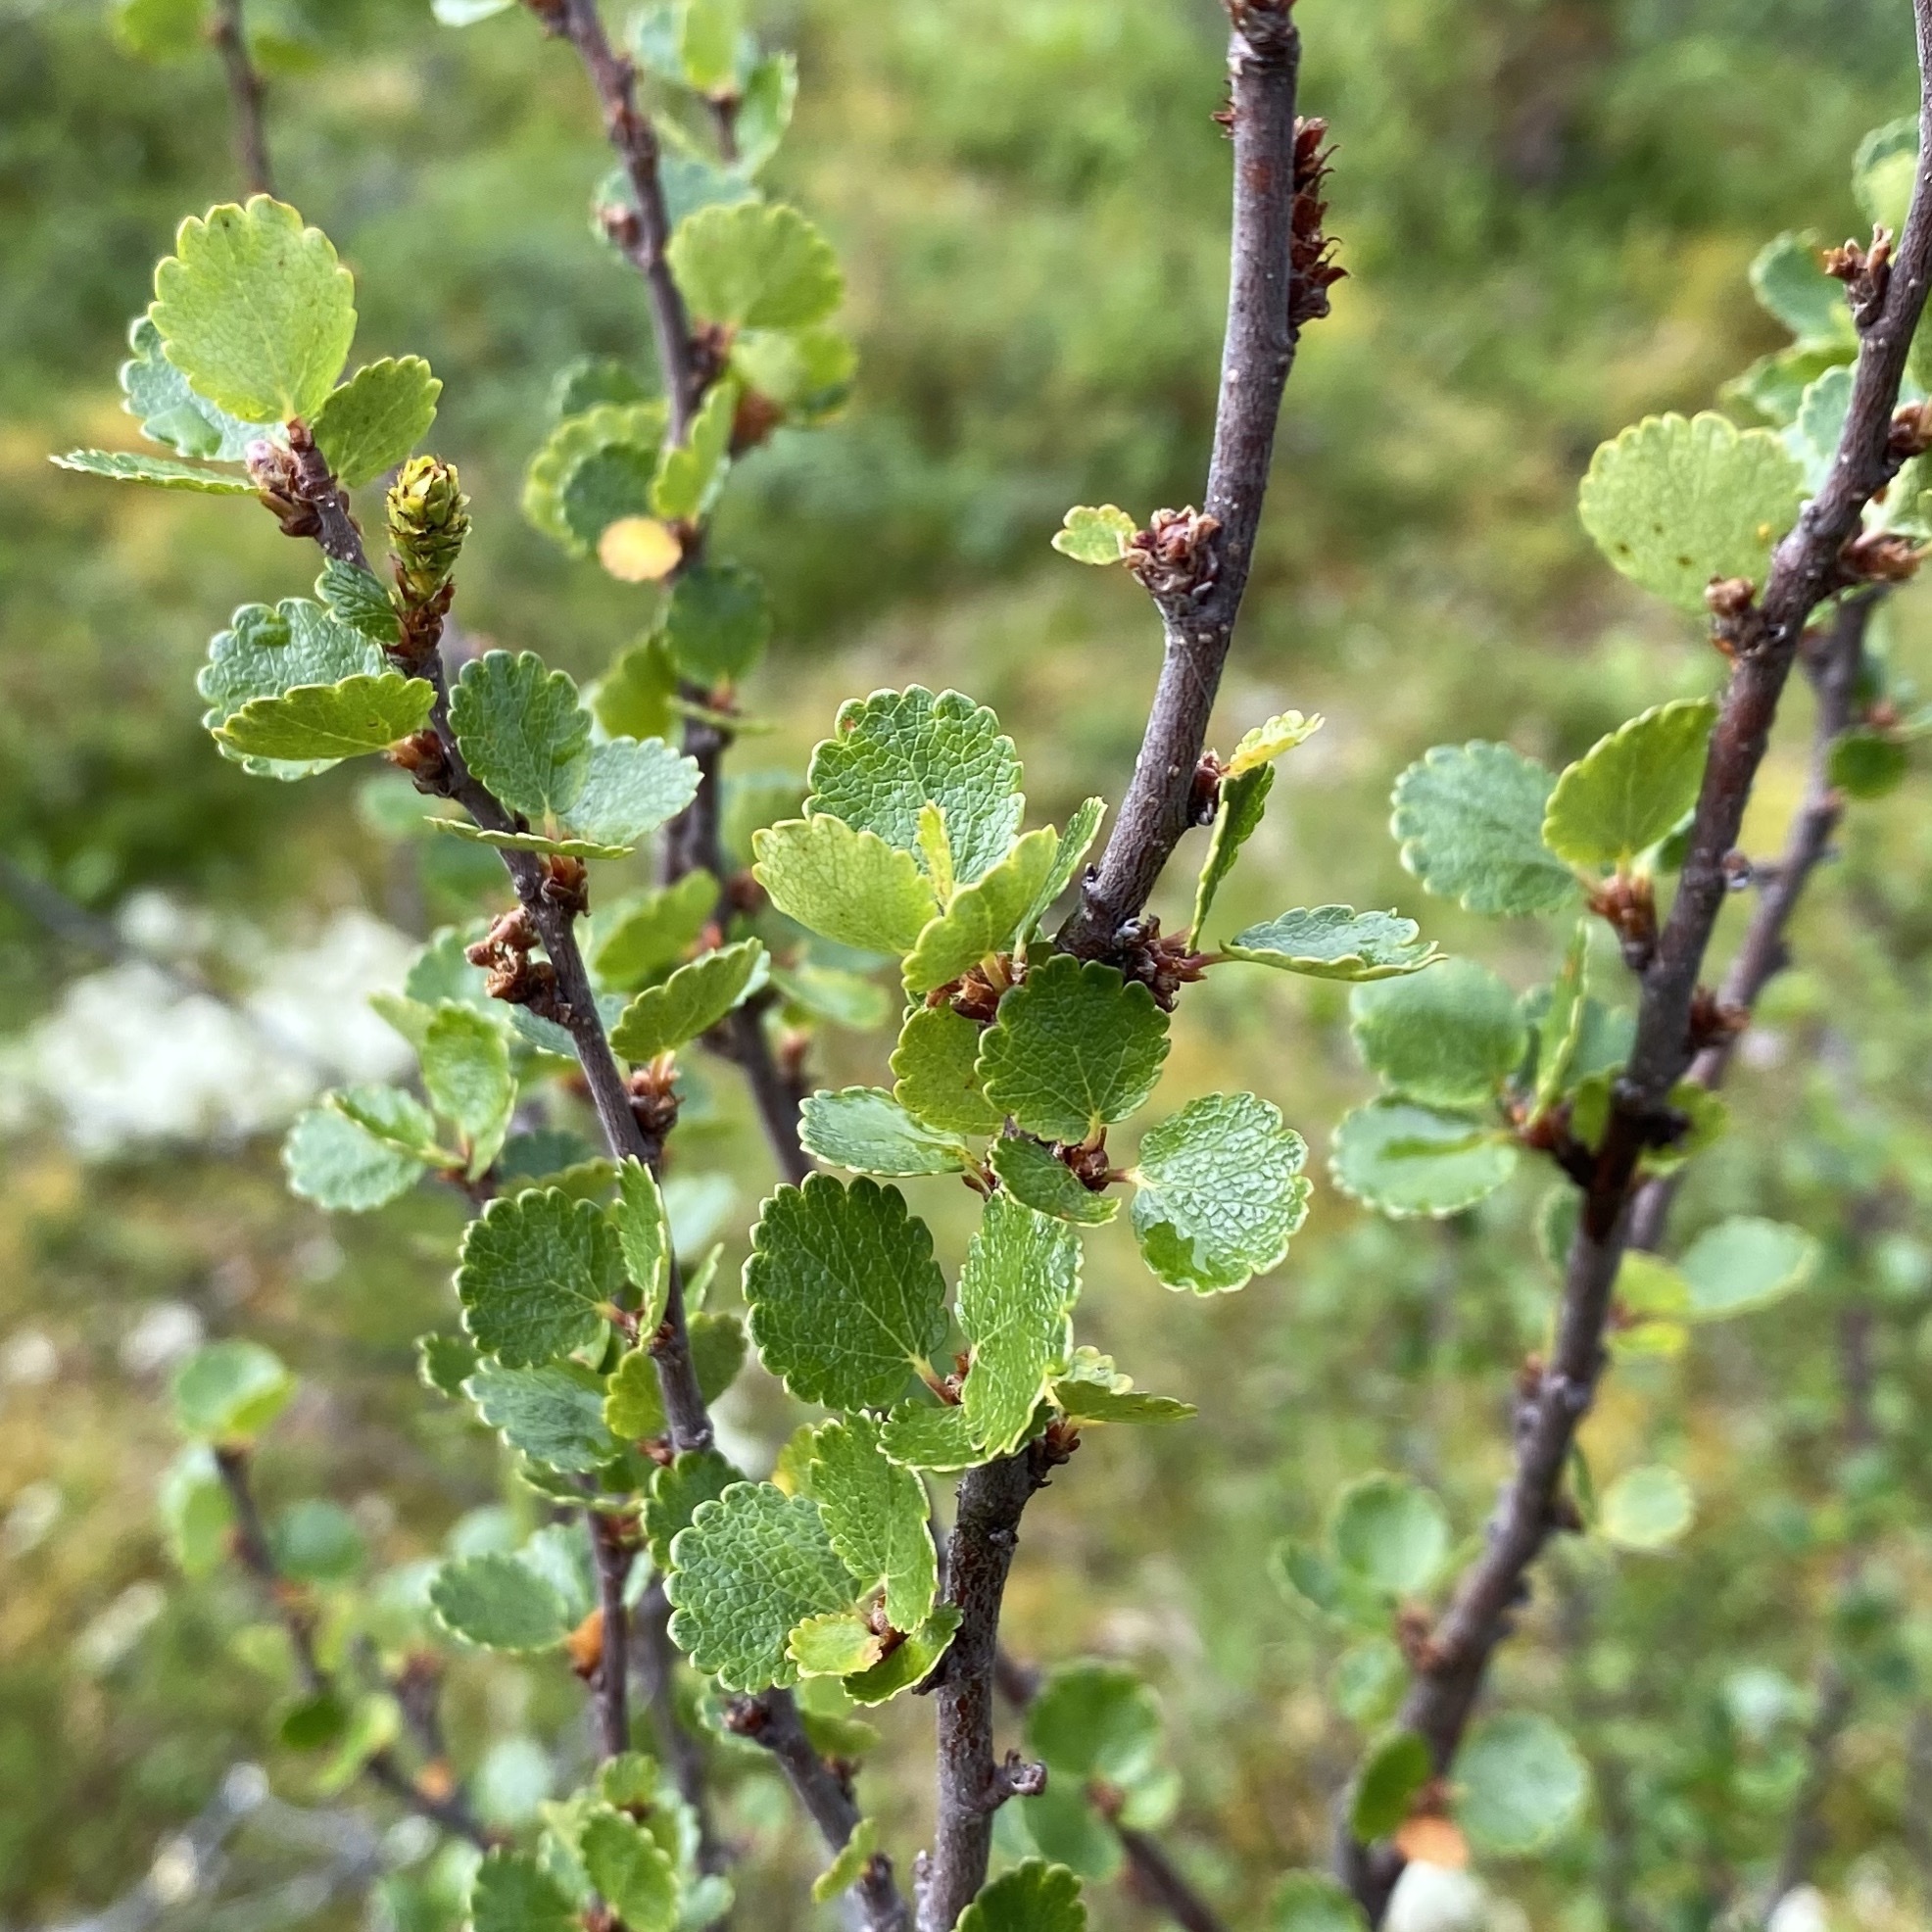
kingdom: Plantae
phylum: Tracheophyta
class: Magnoliopsida
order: Fagales
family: Betulaceae
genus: Betula
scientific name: Betula nana
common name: Arctic dwarf birch
